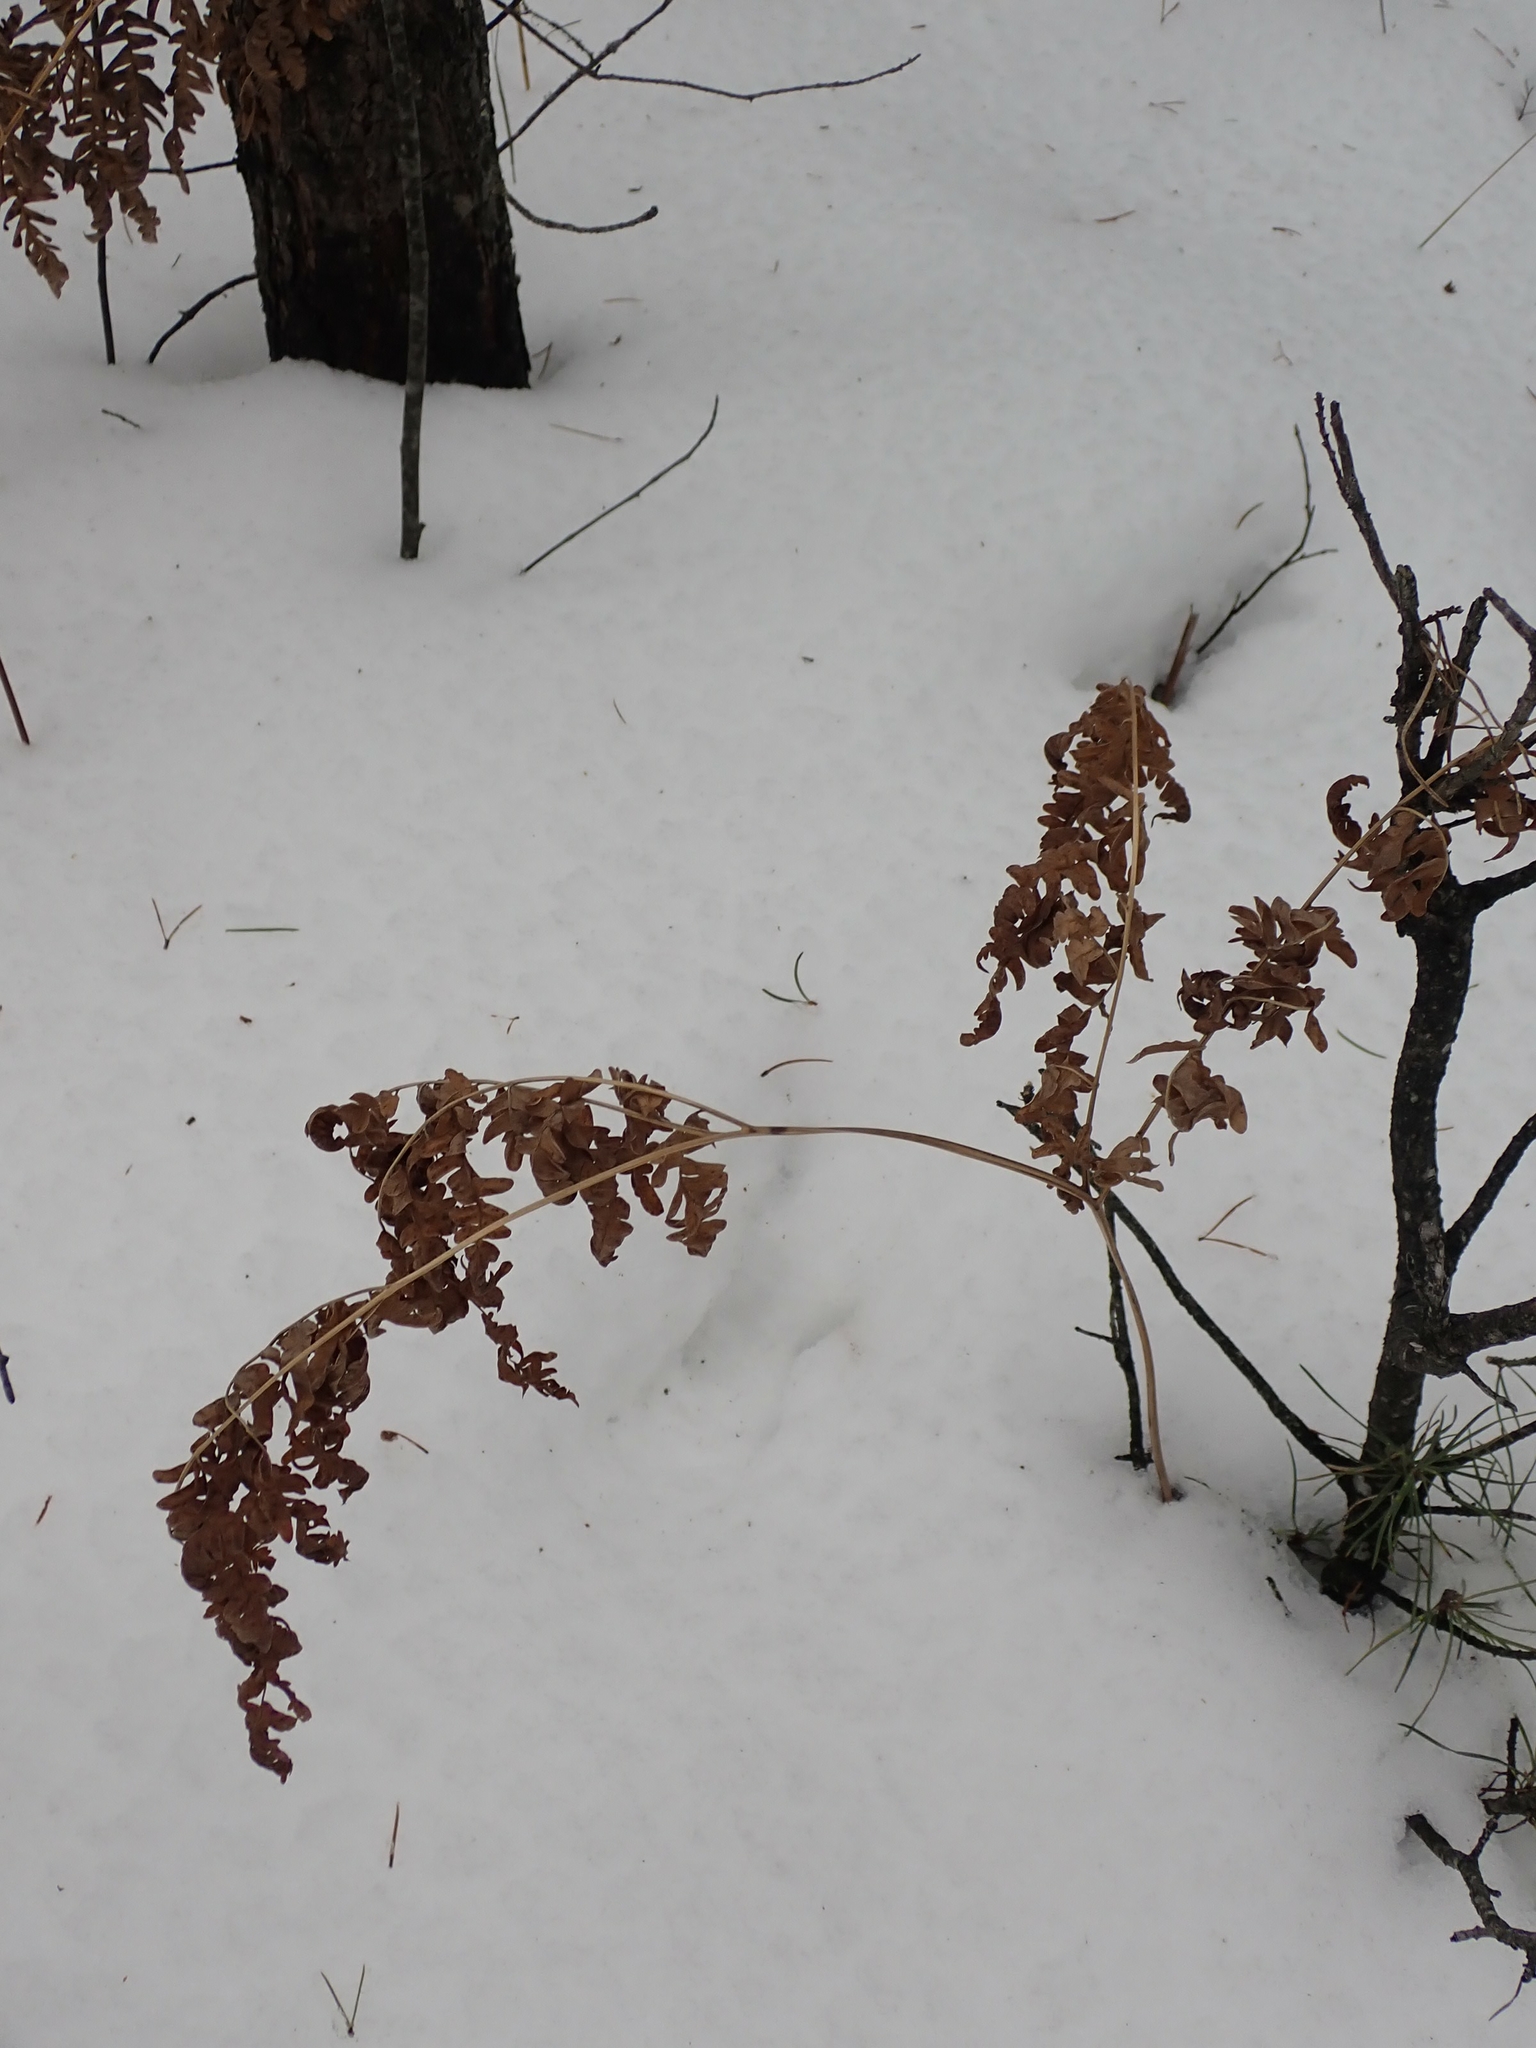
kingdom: Plantae
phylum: Tracheophyta
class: Polypodiopsida
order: Polypodiales
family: Dennstaedtiaceae
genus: Pteridium
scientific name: Pteridium aquilinum
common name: Bracken
